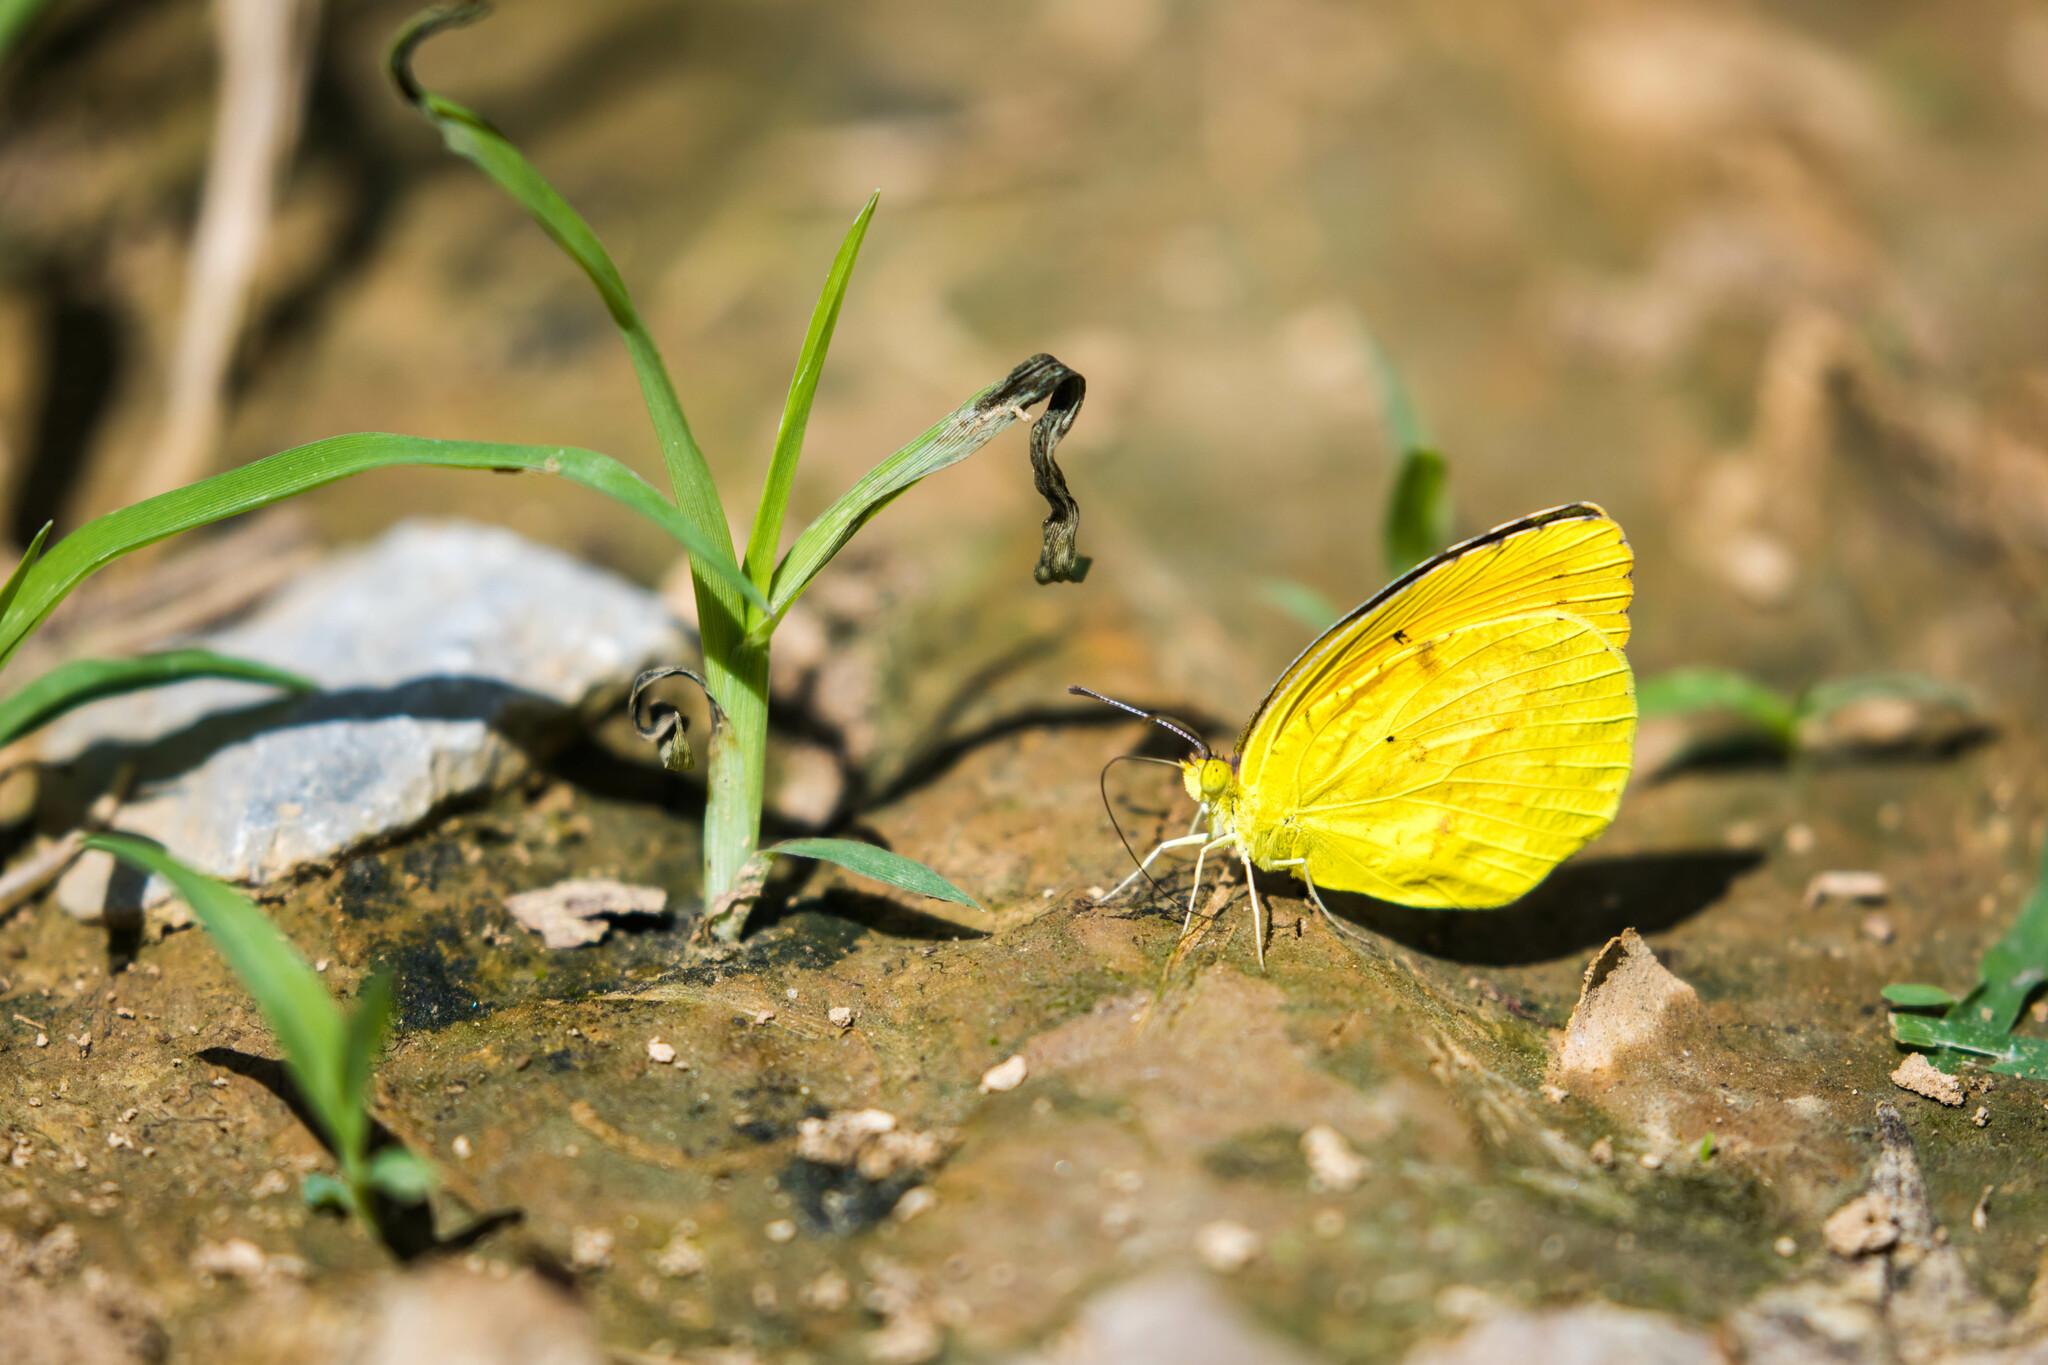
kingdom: Animalia
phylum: Arthropoda
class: Insecta
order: Lepidoptera
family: Pieridae
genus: Abaeis
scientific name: Abaeis nicippe
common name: Sleepy orange
